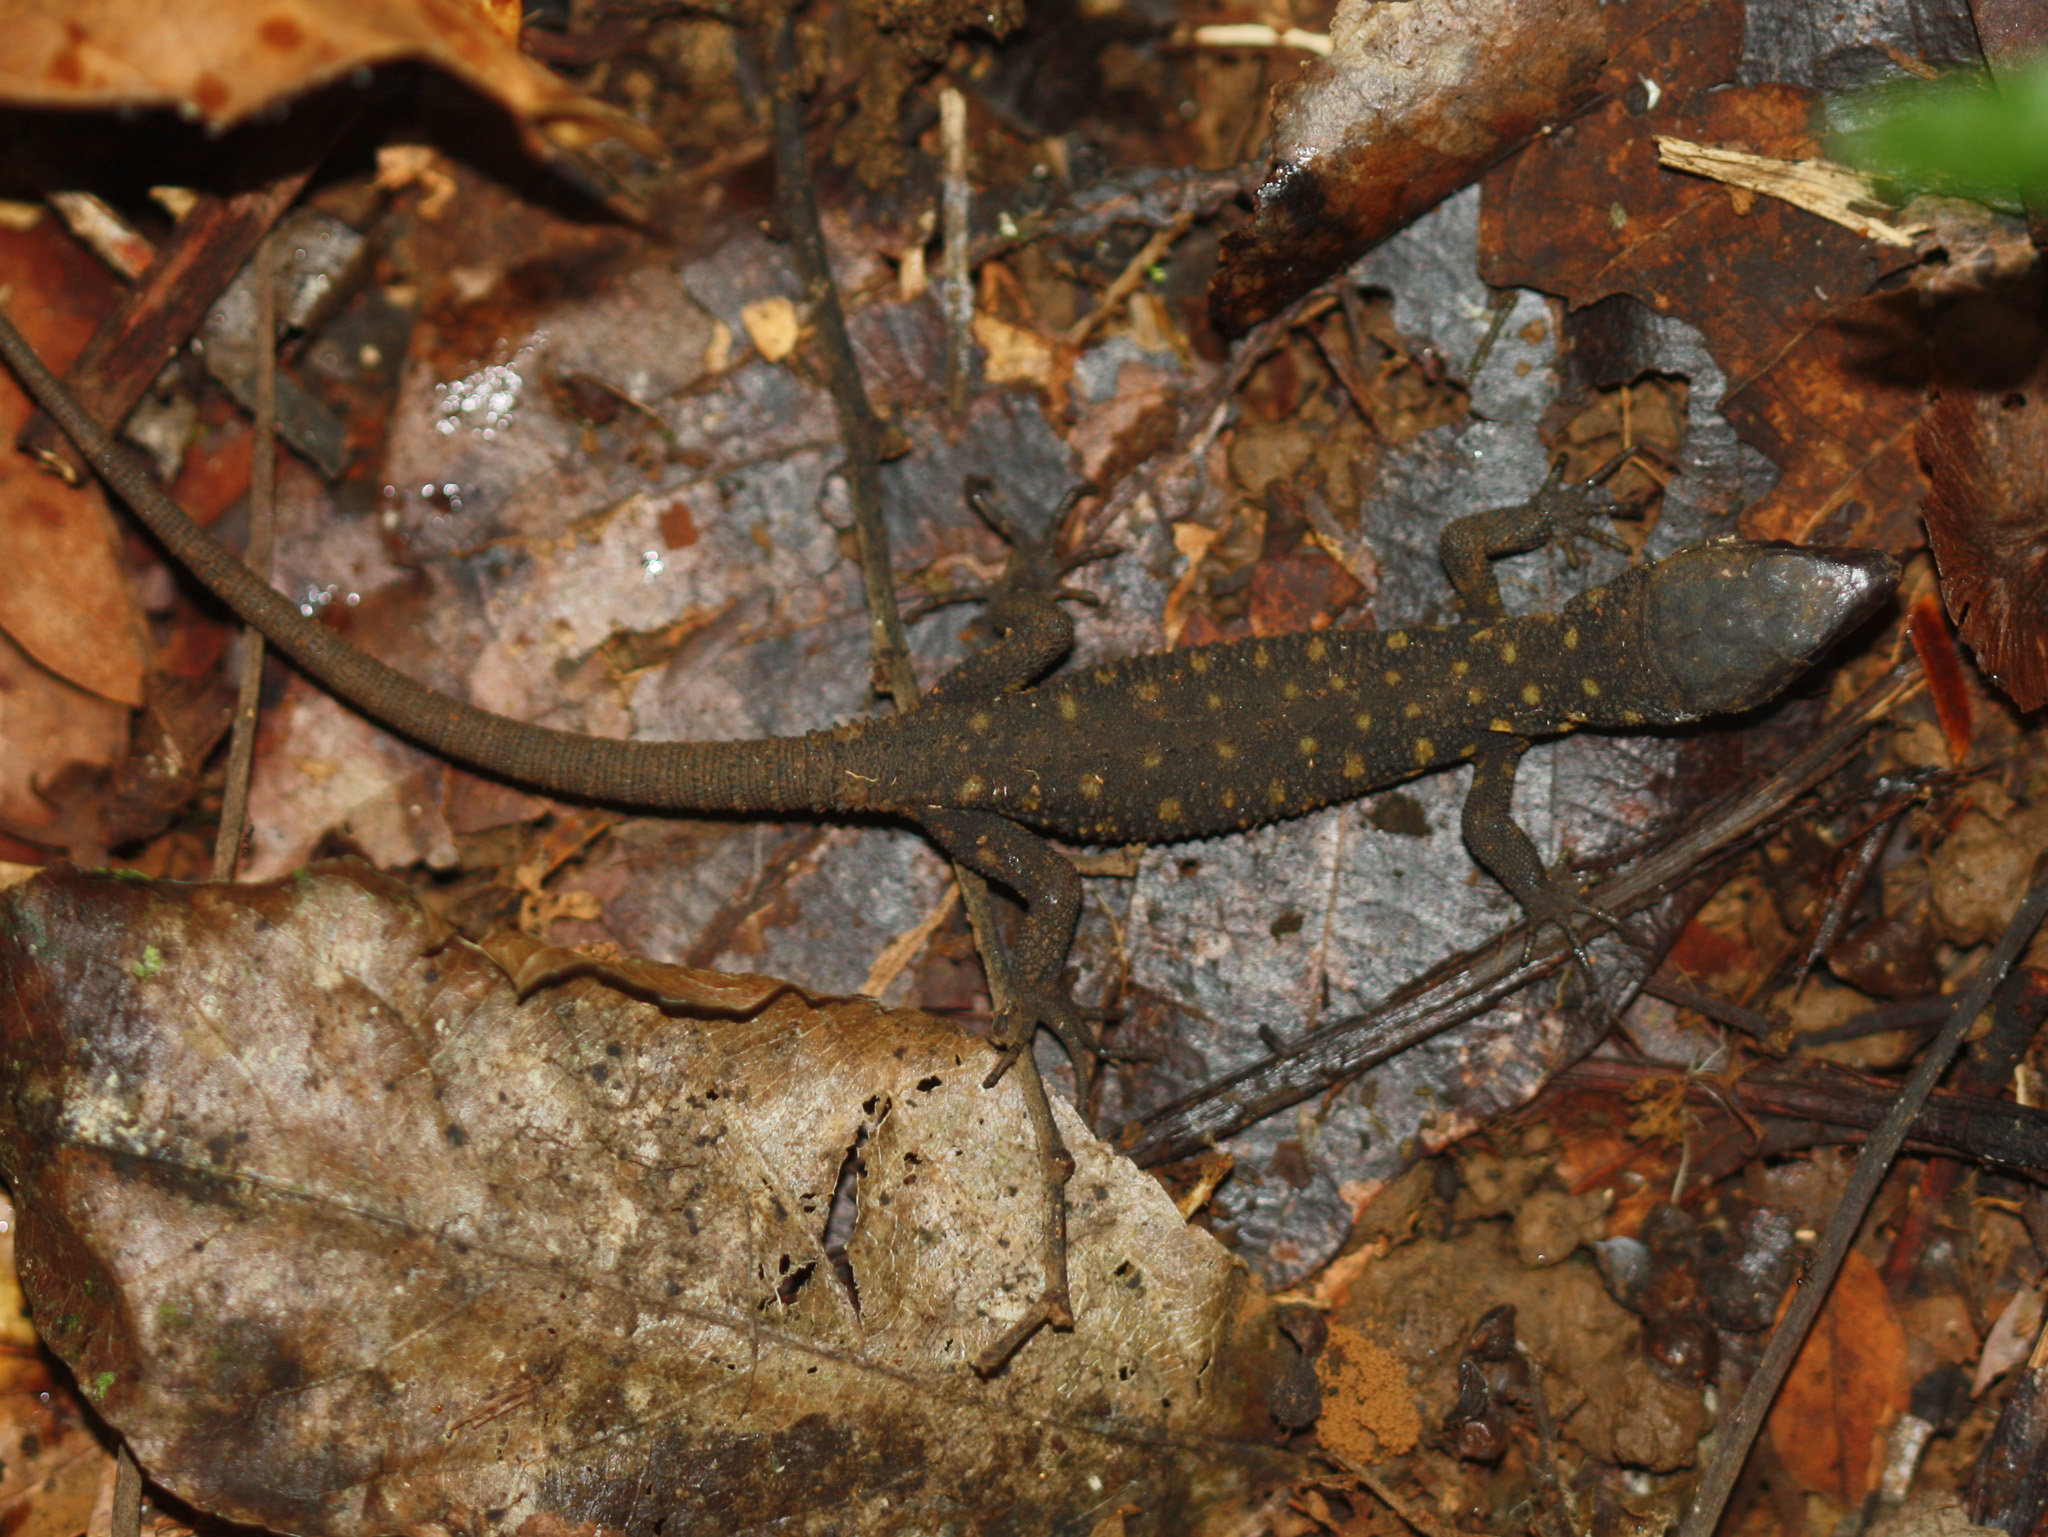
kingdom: Animalia
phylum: Chordata
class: Squamata
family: Xantusiidae
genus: Lepidophyma
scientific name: Lepidophyma flavimaculatum
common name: Yellow-spotted night lizard
